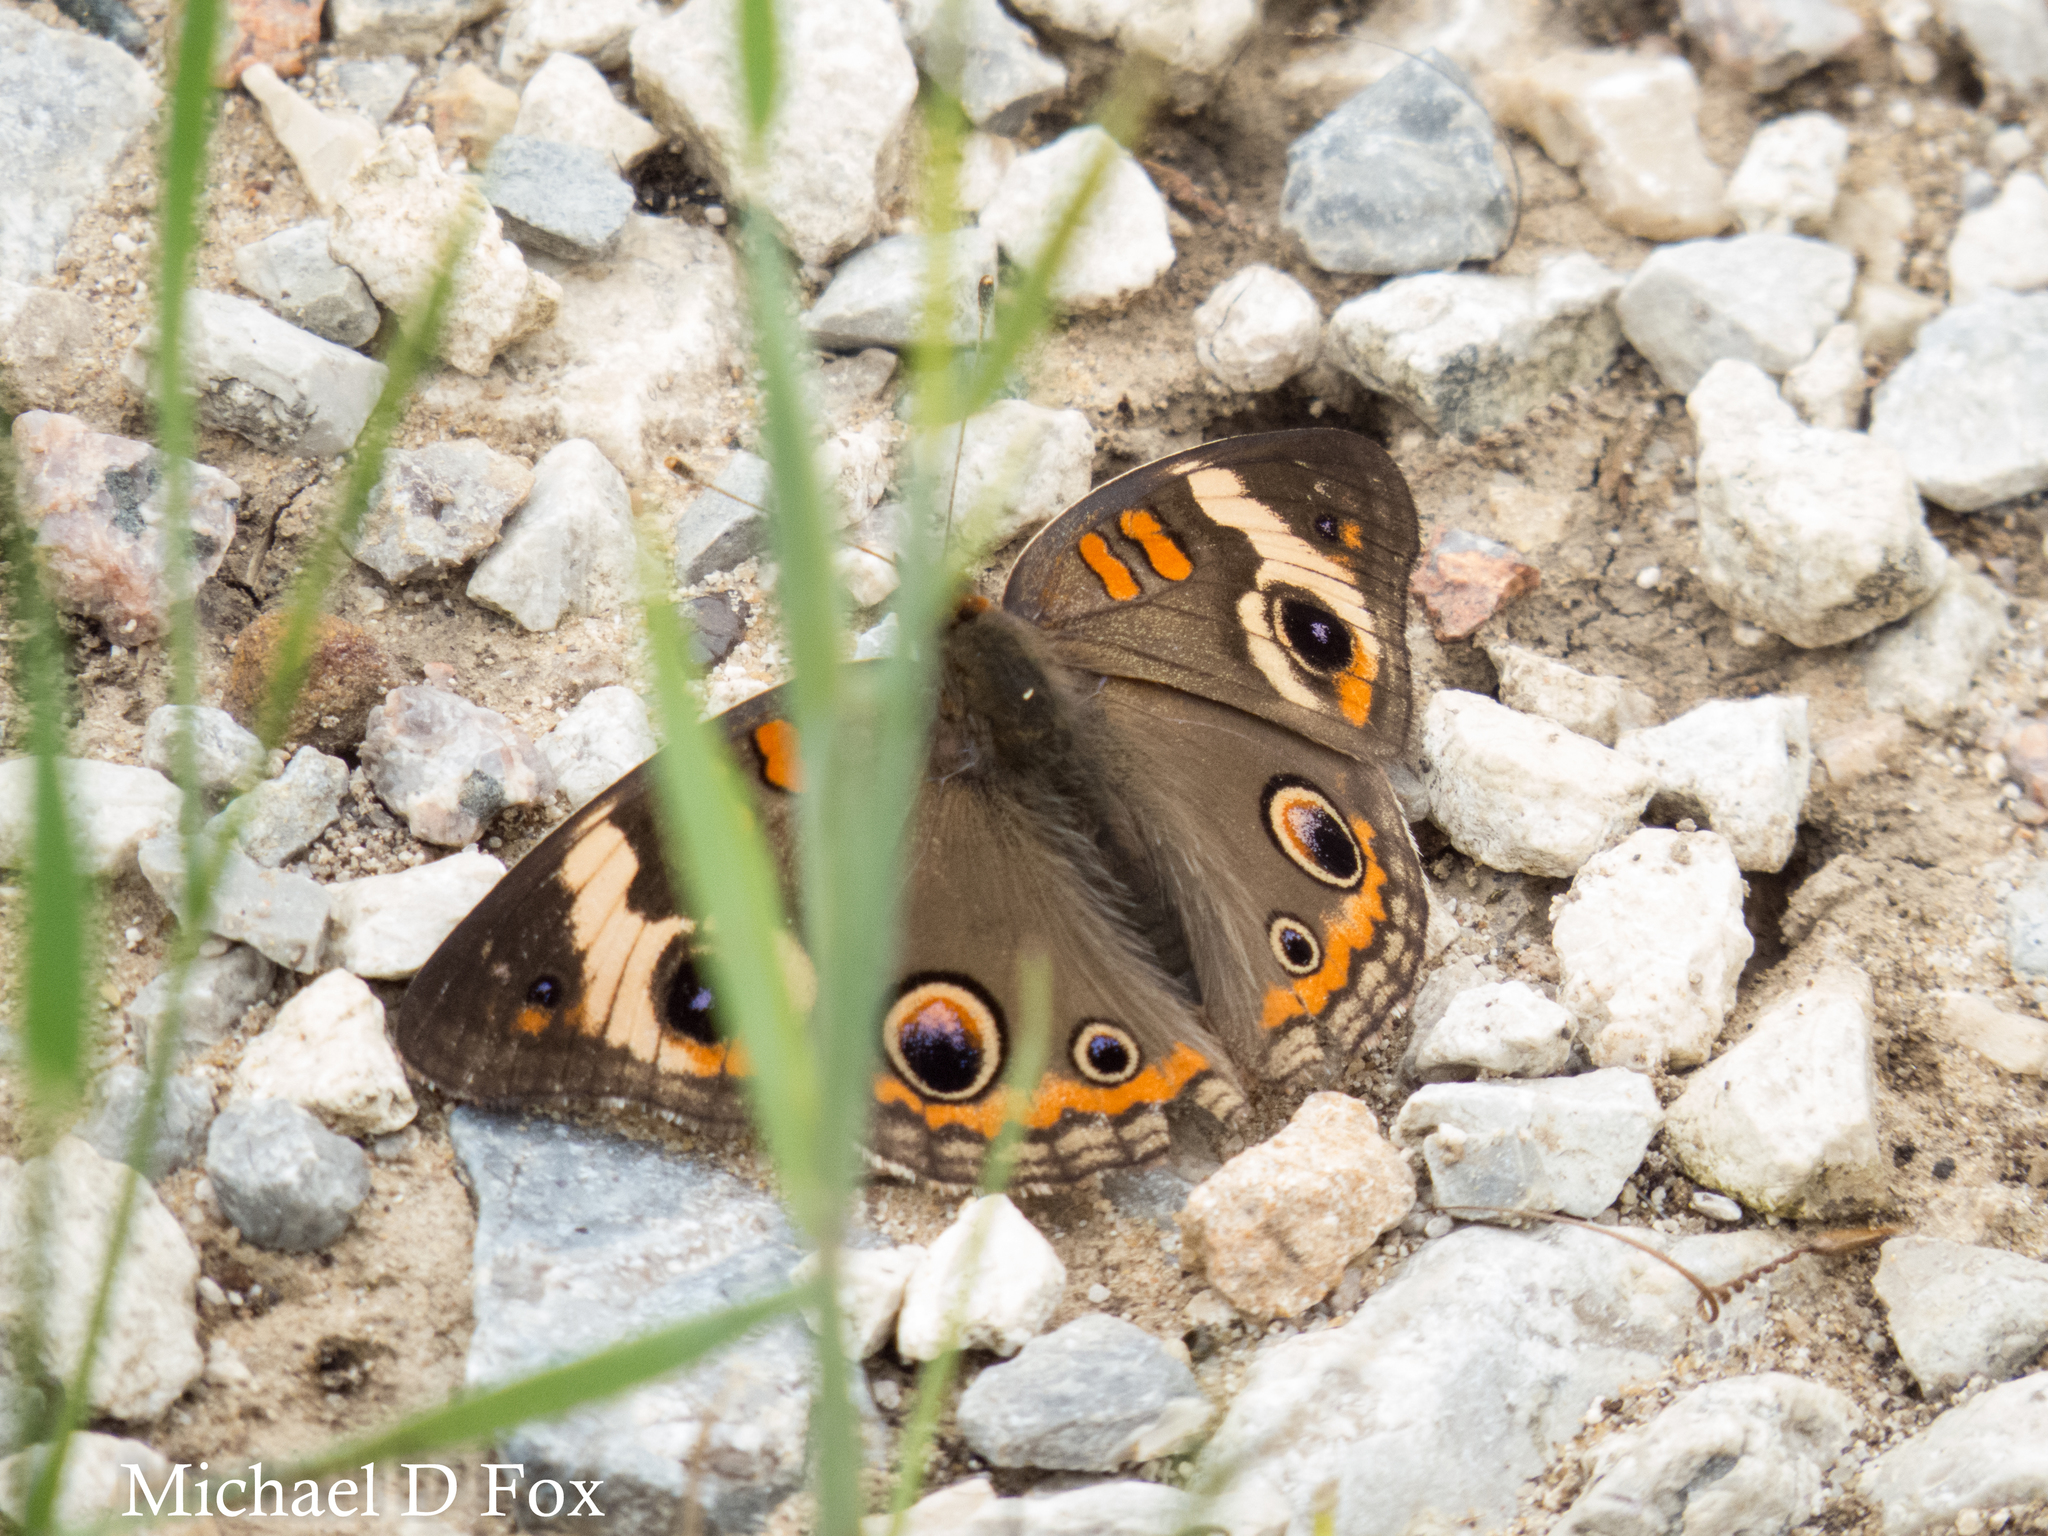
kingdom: Animalia
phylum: Arthropoda
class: Insecta
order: Lepidoptera
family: Nymphalidae
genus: Junonia
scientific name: Junonia coenia
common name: Common buckeye
